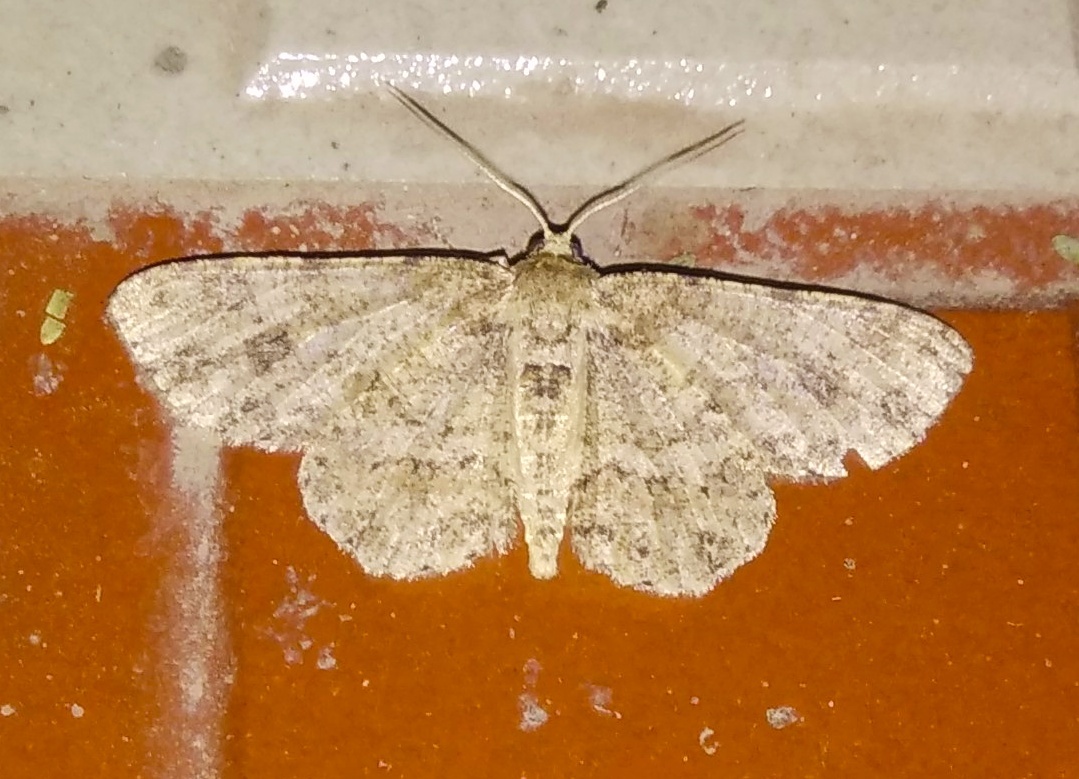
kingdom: Animalia
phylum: Arthropoda
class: Insecta
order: Lepidoptera
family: Geometridae
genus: Ectropis
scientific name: Ectropis bhurmitra
